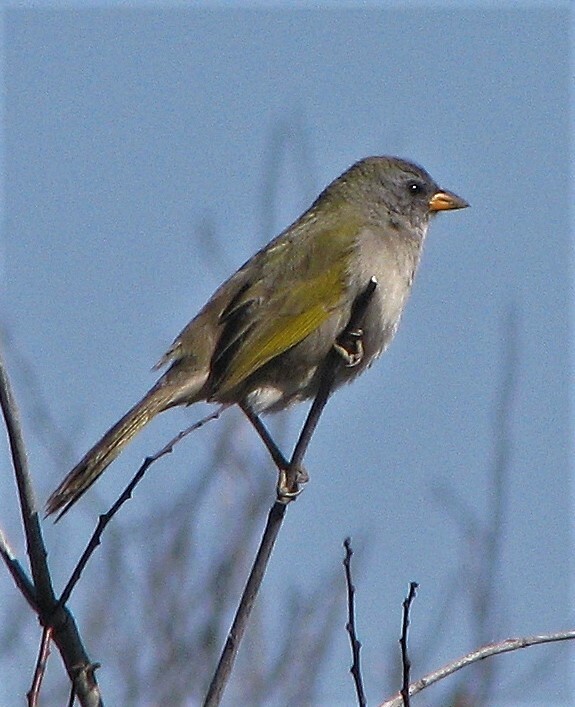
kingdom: Animalia
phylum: Chordata
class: Aves
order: Passeriformes
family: Thraupidae
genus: Embernagra
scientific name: Embernagra platensis
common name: Pampa finch
